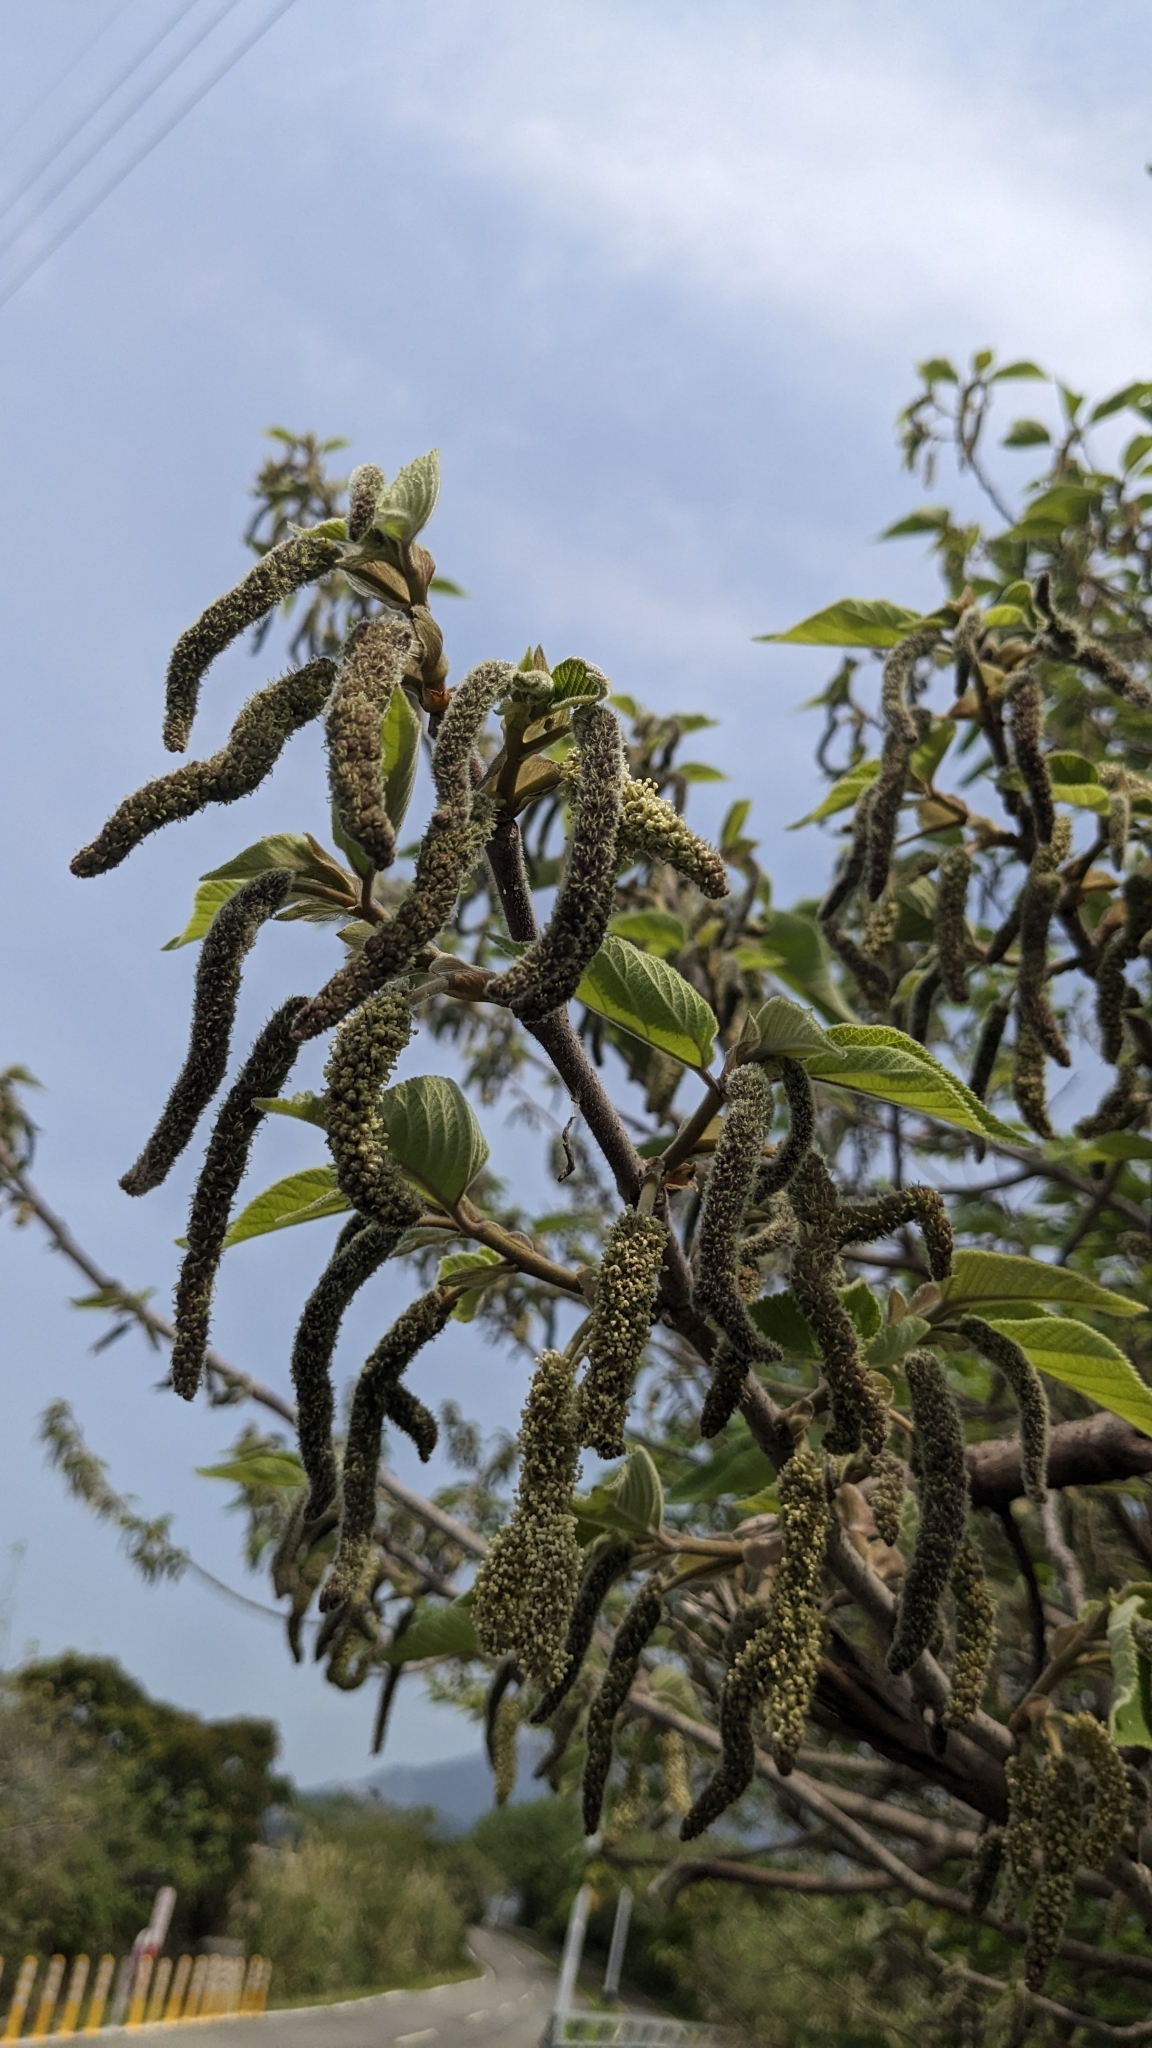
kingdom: Plantae
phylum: Tracheophyta
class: Magnoliopsida
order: Rosales
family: Moraceae
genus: Broussonetia
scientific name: Broussonetia papyrifera
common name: Paper mulberry
